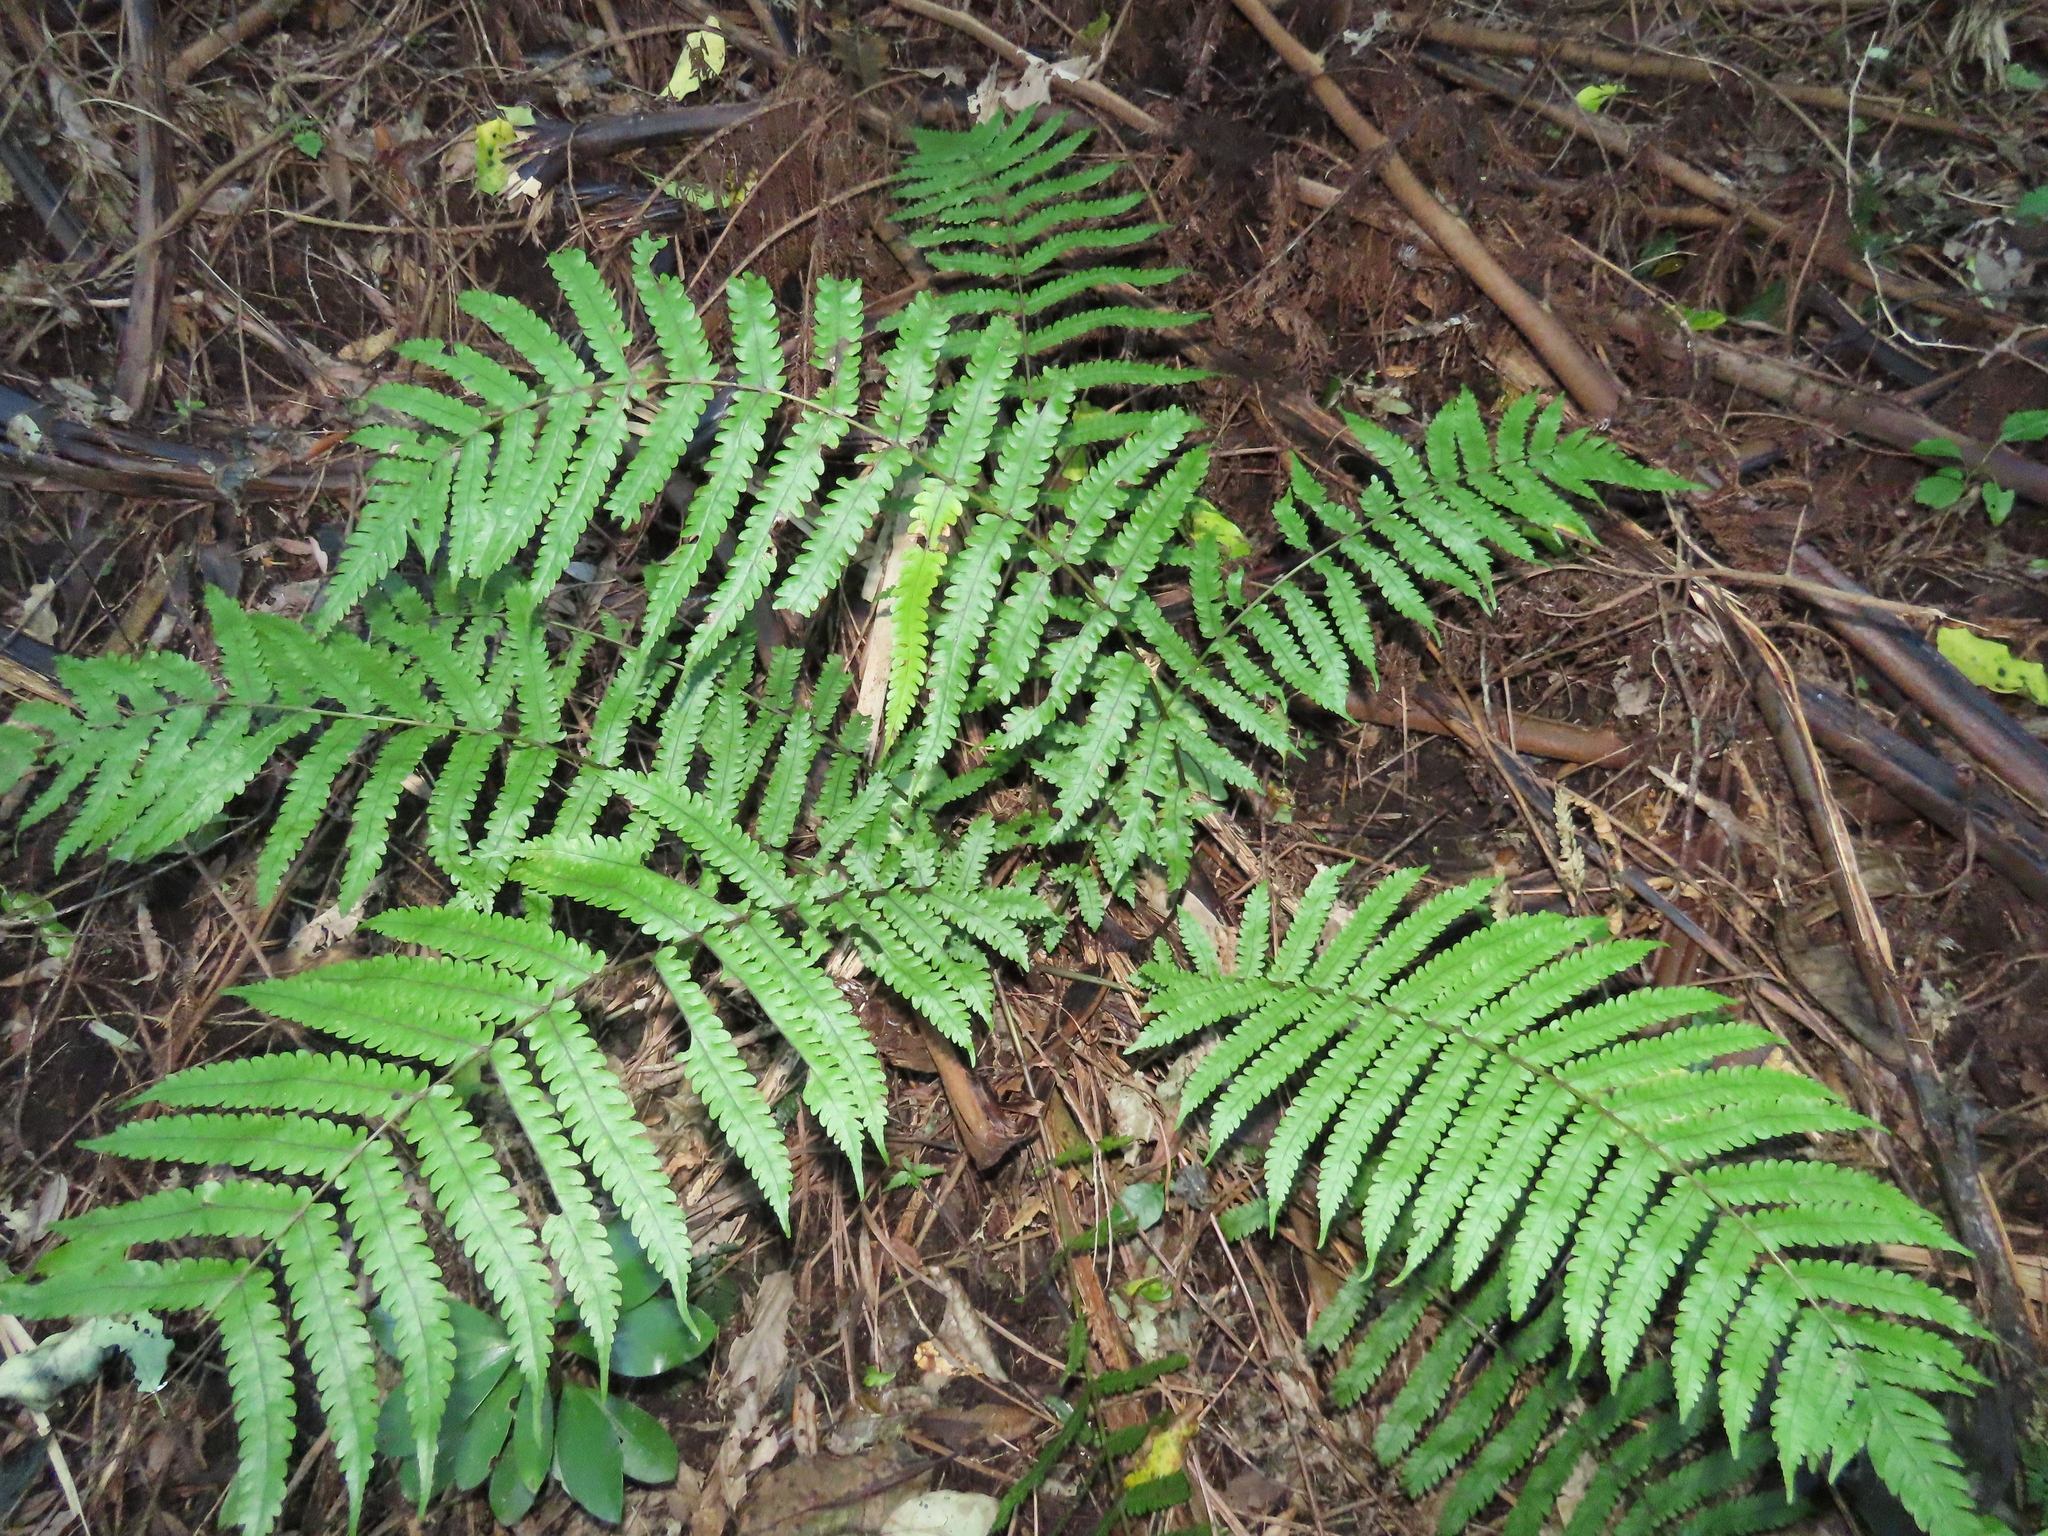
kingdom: Plantae
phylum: Tracheophyta
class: Polypodiopsida
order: Polypodiales
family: Thelypteridaceae
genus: Pakau
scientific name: Pakau pennigera
